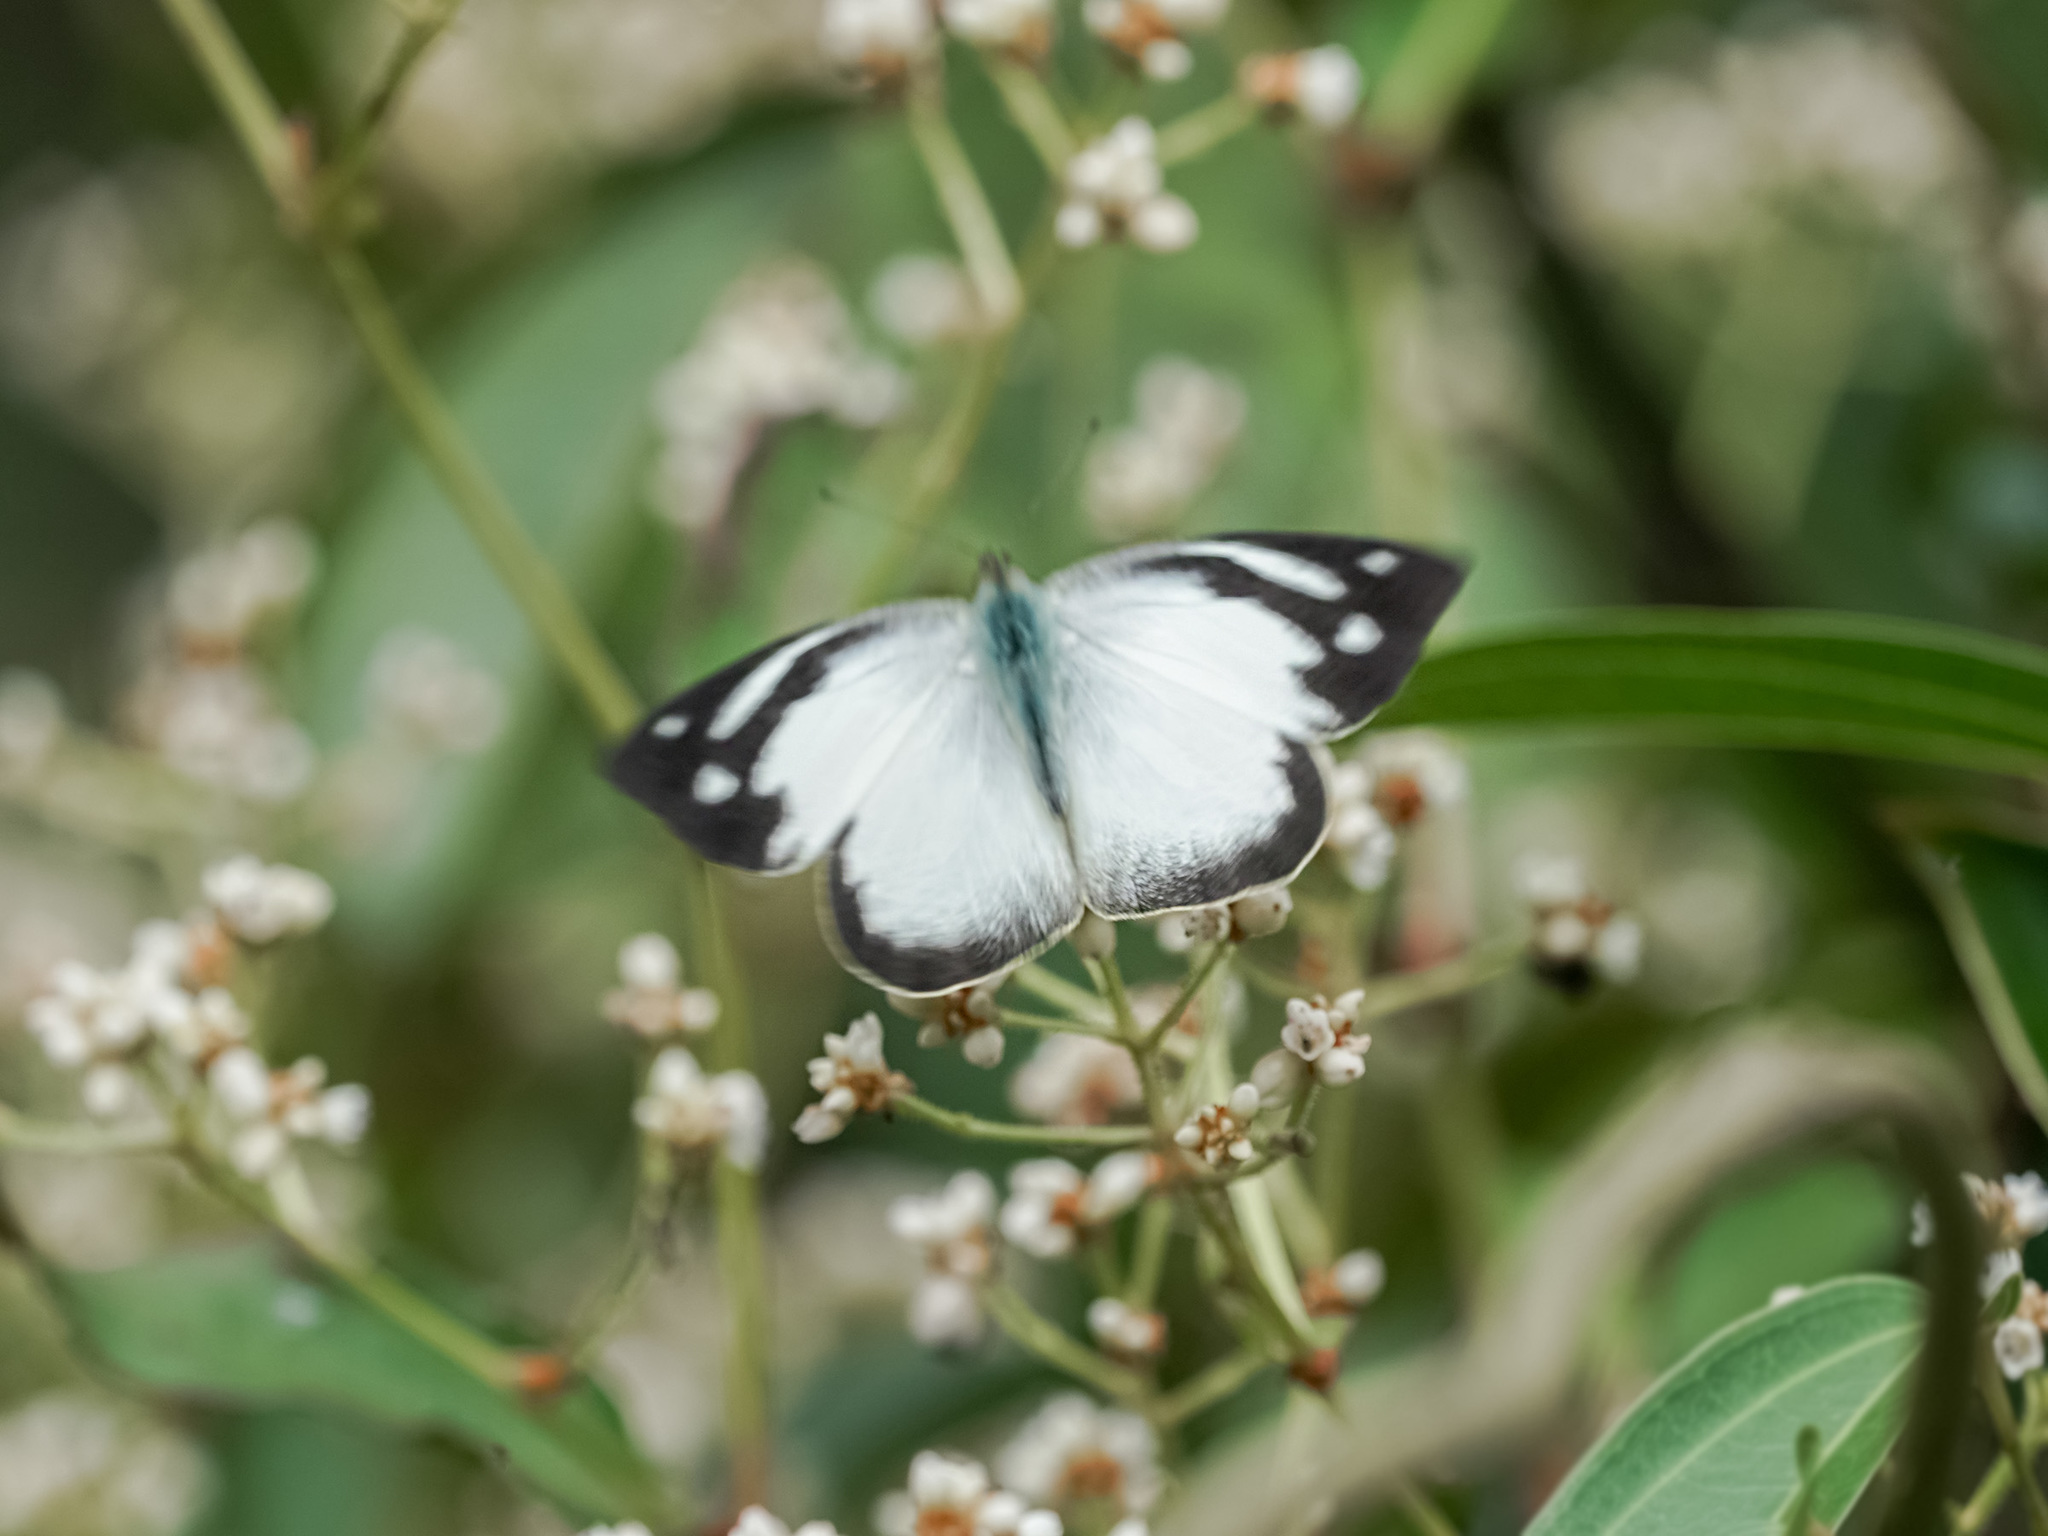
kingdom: Animalia
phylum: Arthropoda
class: Insecta
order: Lepidoptera
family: Pieridae
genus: Appias
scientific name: Appias pandione
